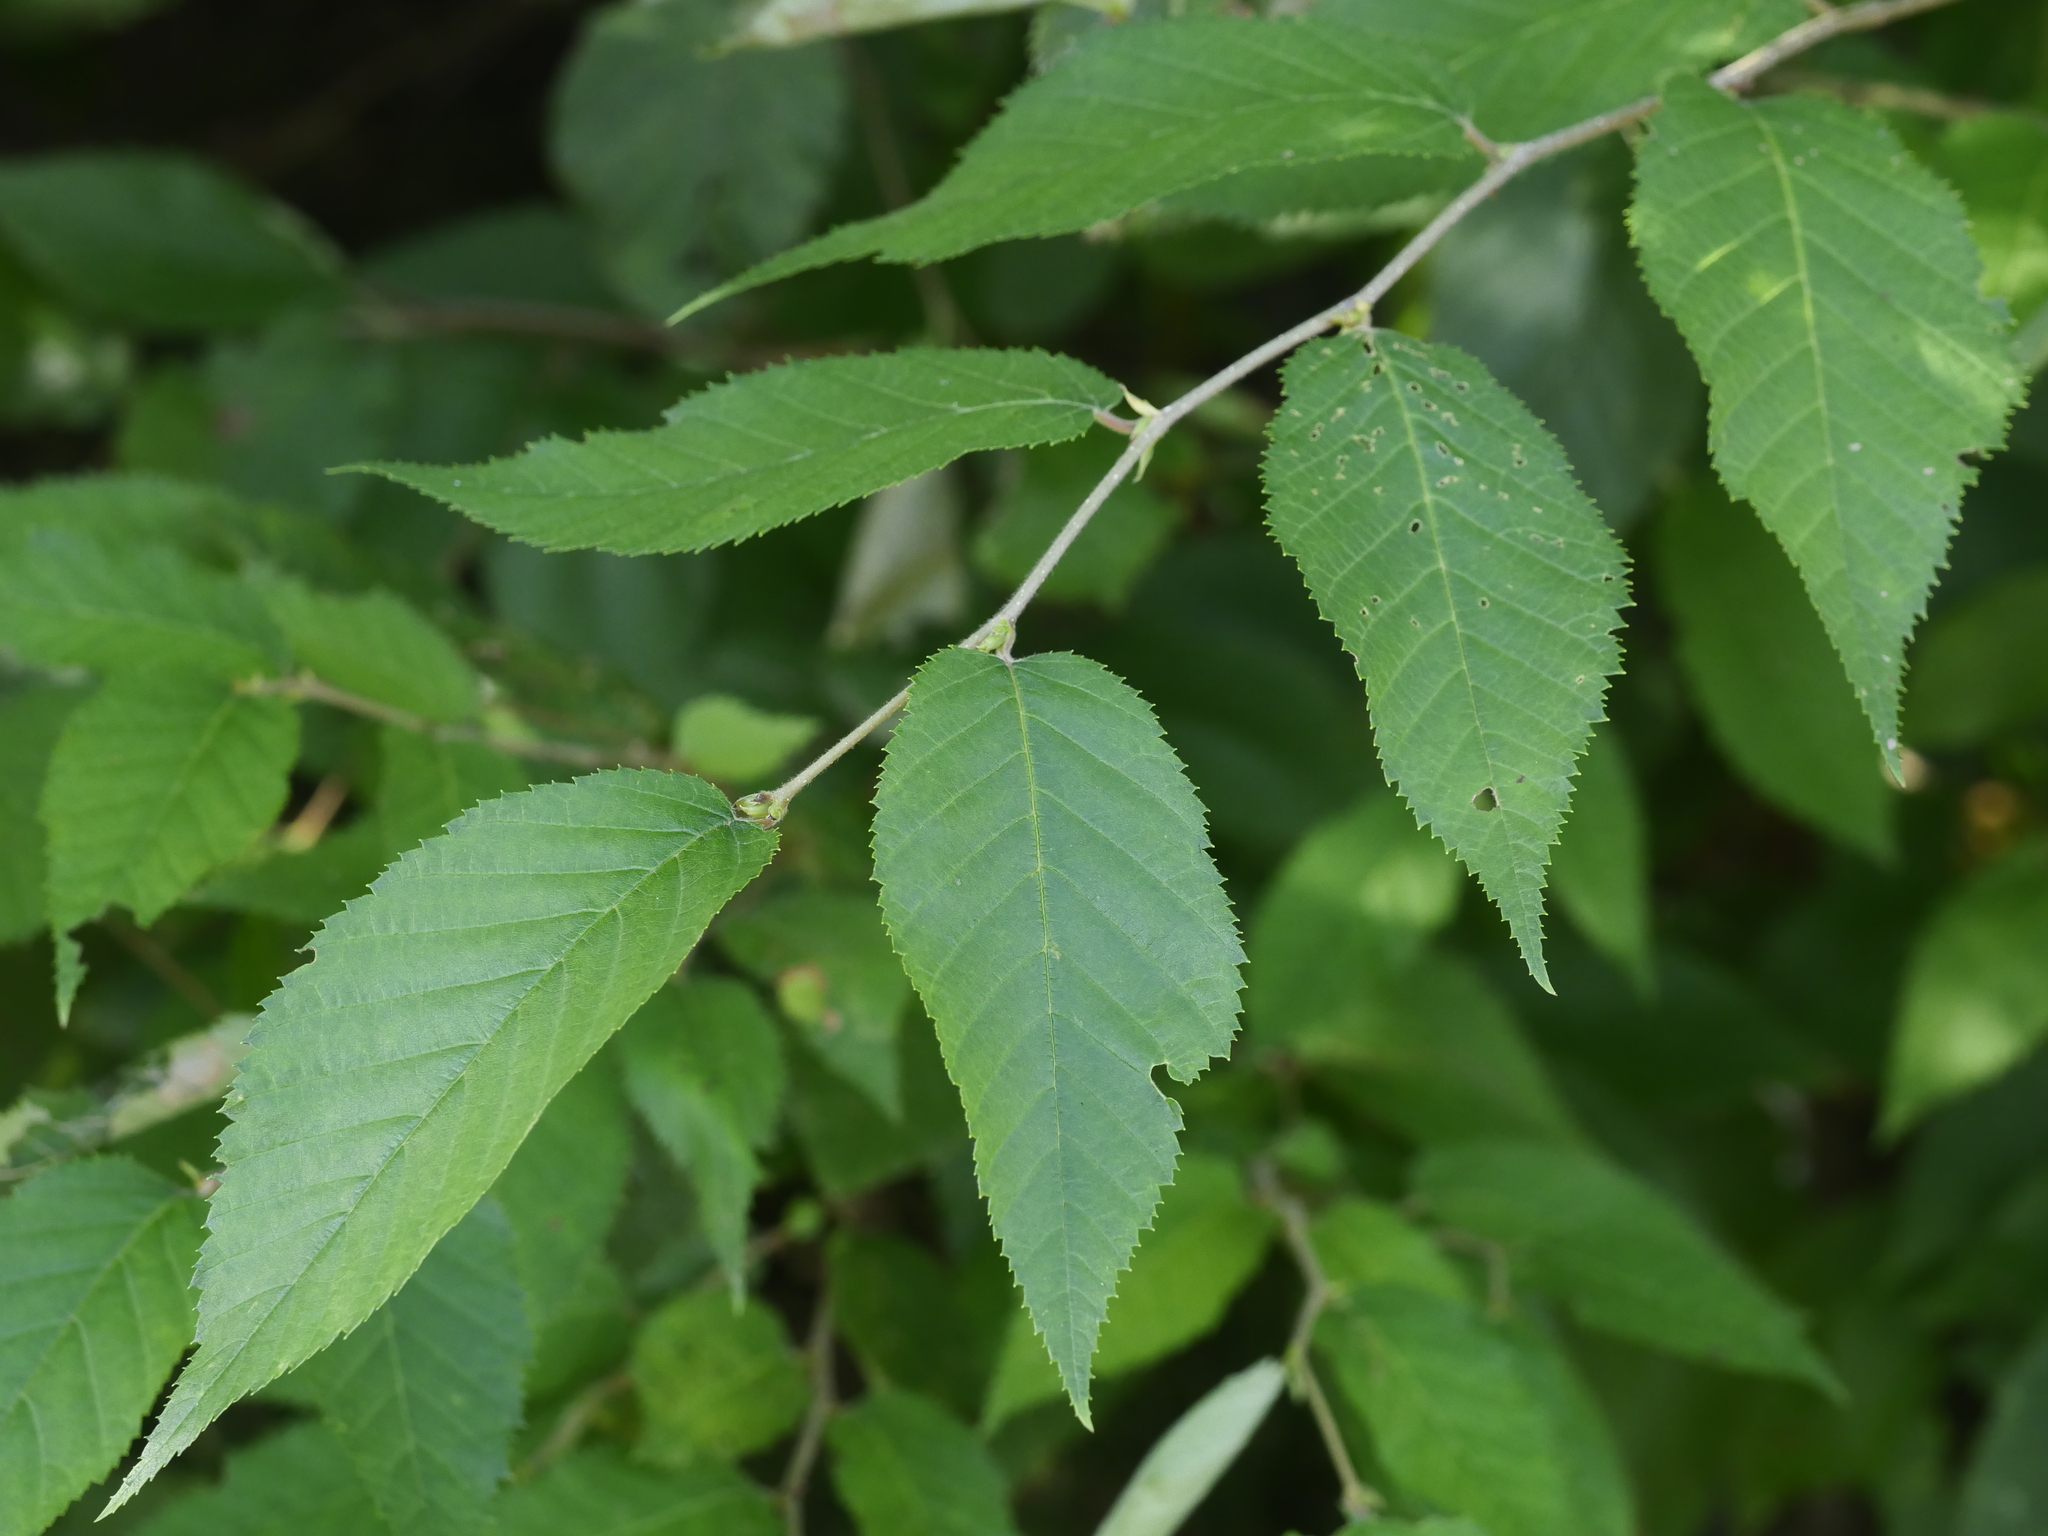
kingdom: Plantae
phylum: Tracheophyta
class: Magnoliopsida
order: Fagales
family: Betulaceae
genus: Betula
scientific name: Betula alleghaniensis
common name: Yellow birch
